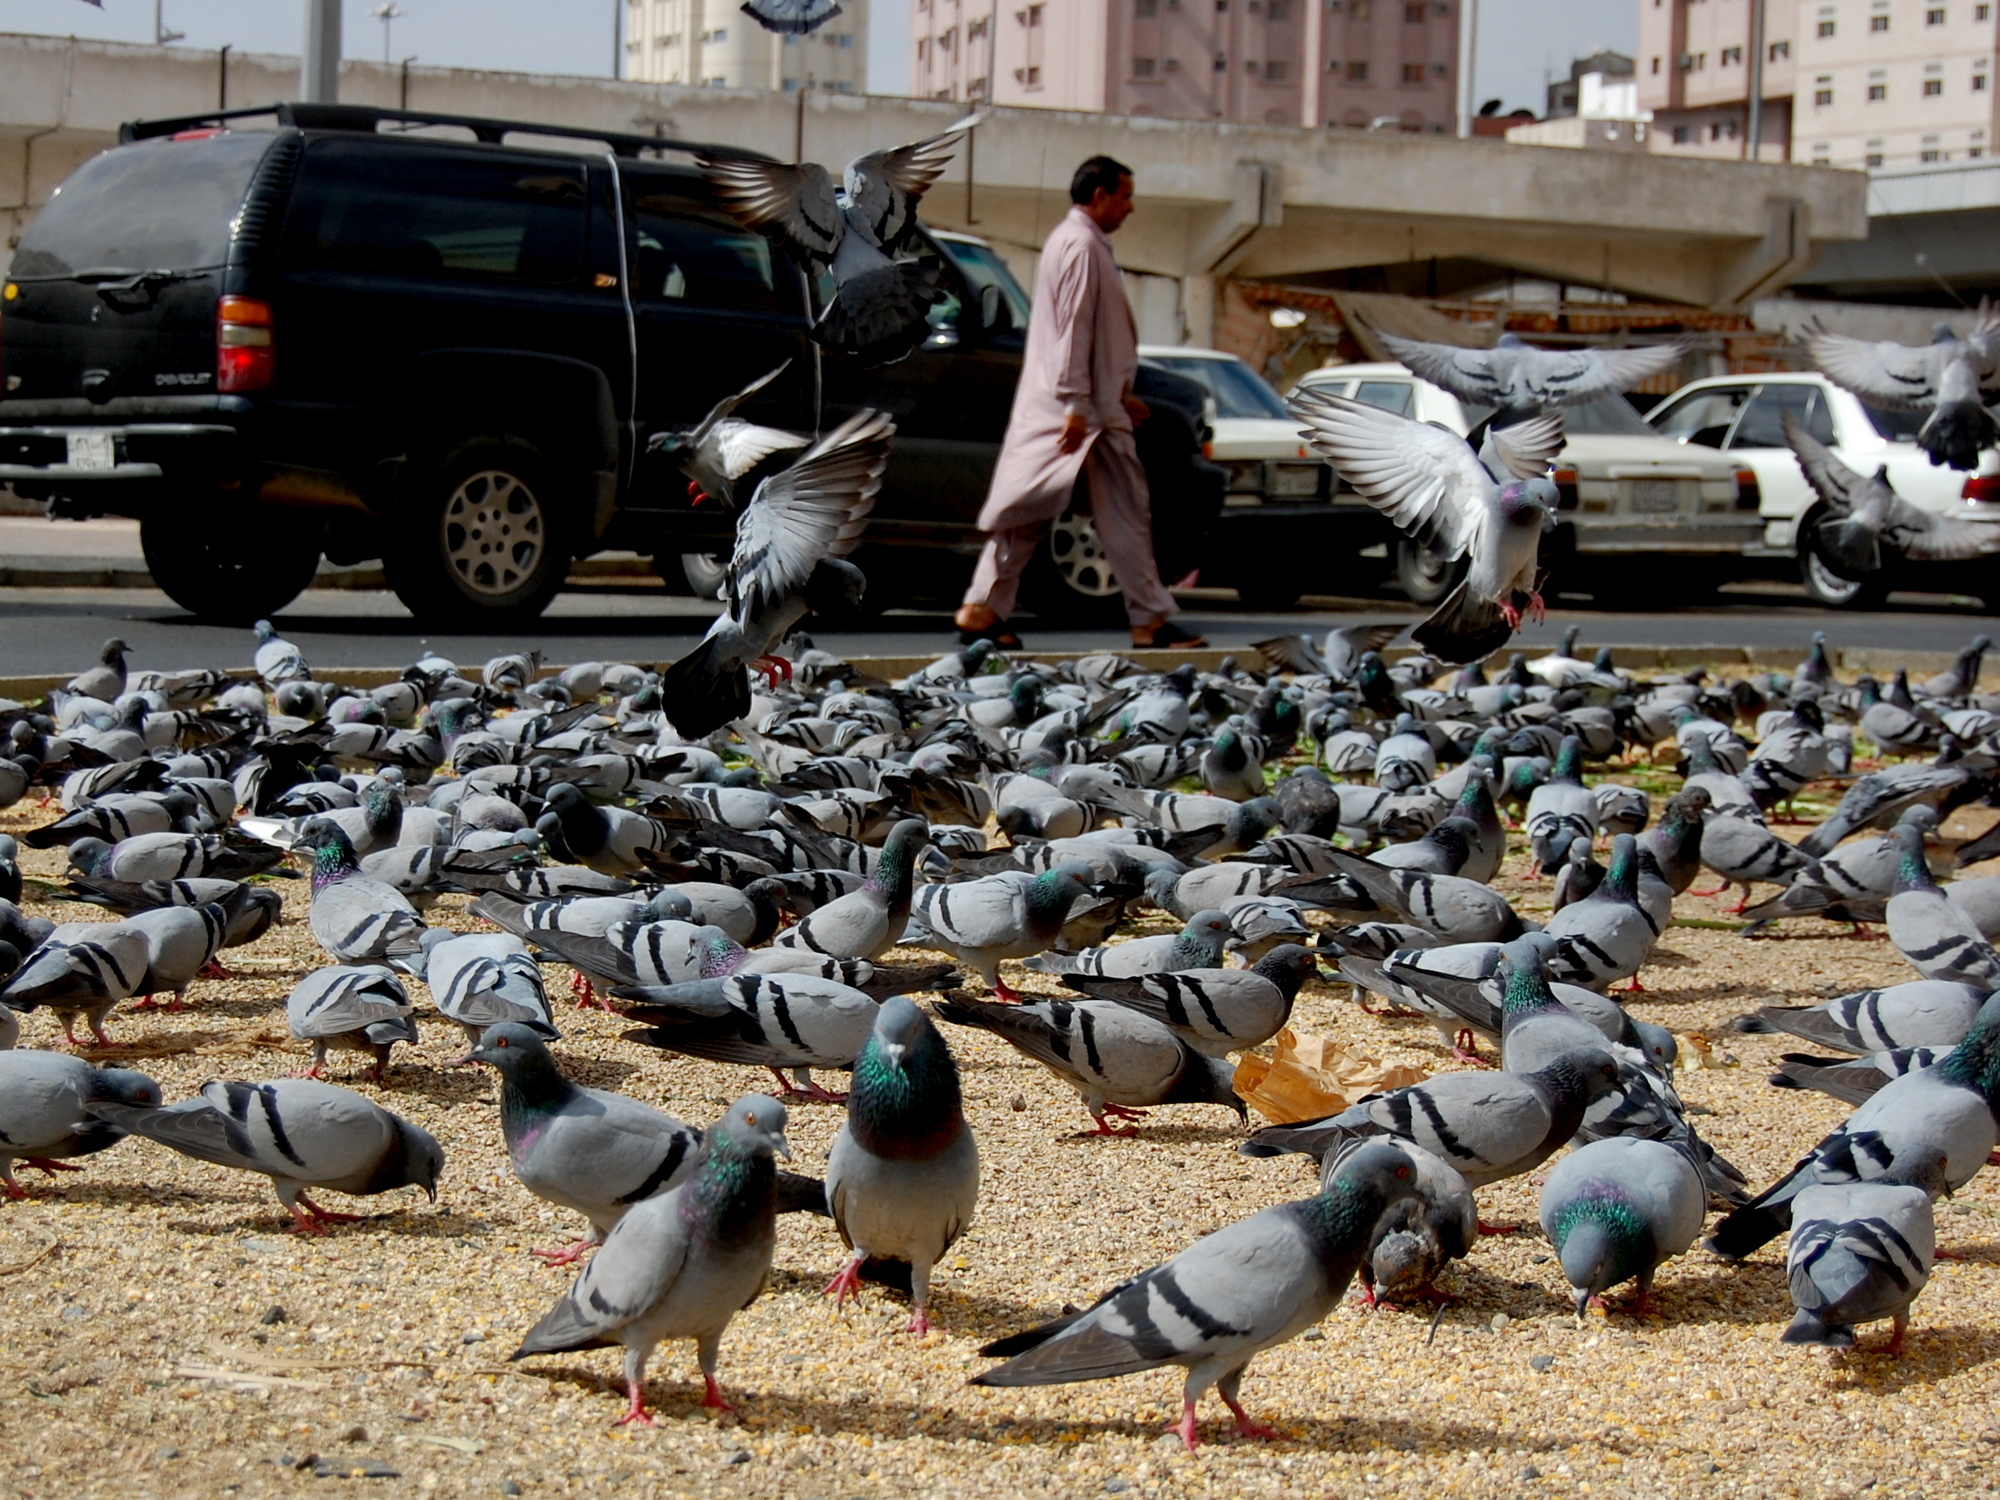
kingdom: Animalia
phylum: Chordata
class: Aves
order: Columbiformes
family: Columbidae
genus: Columba
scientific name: Columba livia
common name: Rock pigeon
